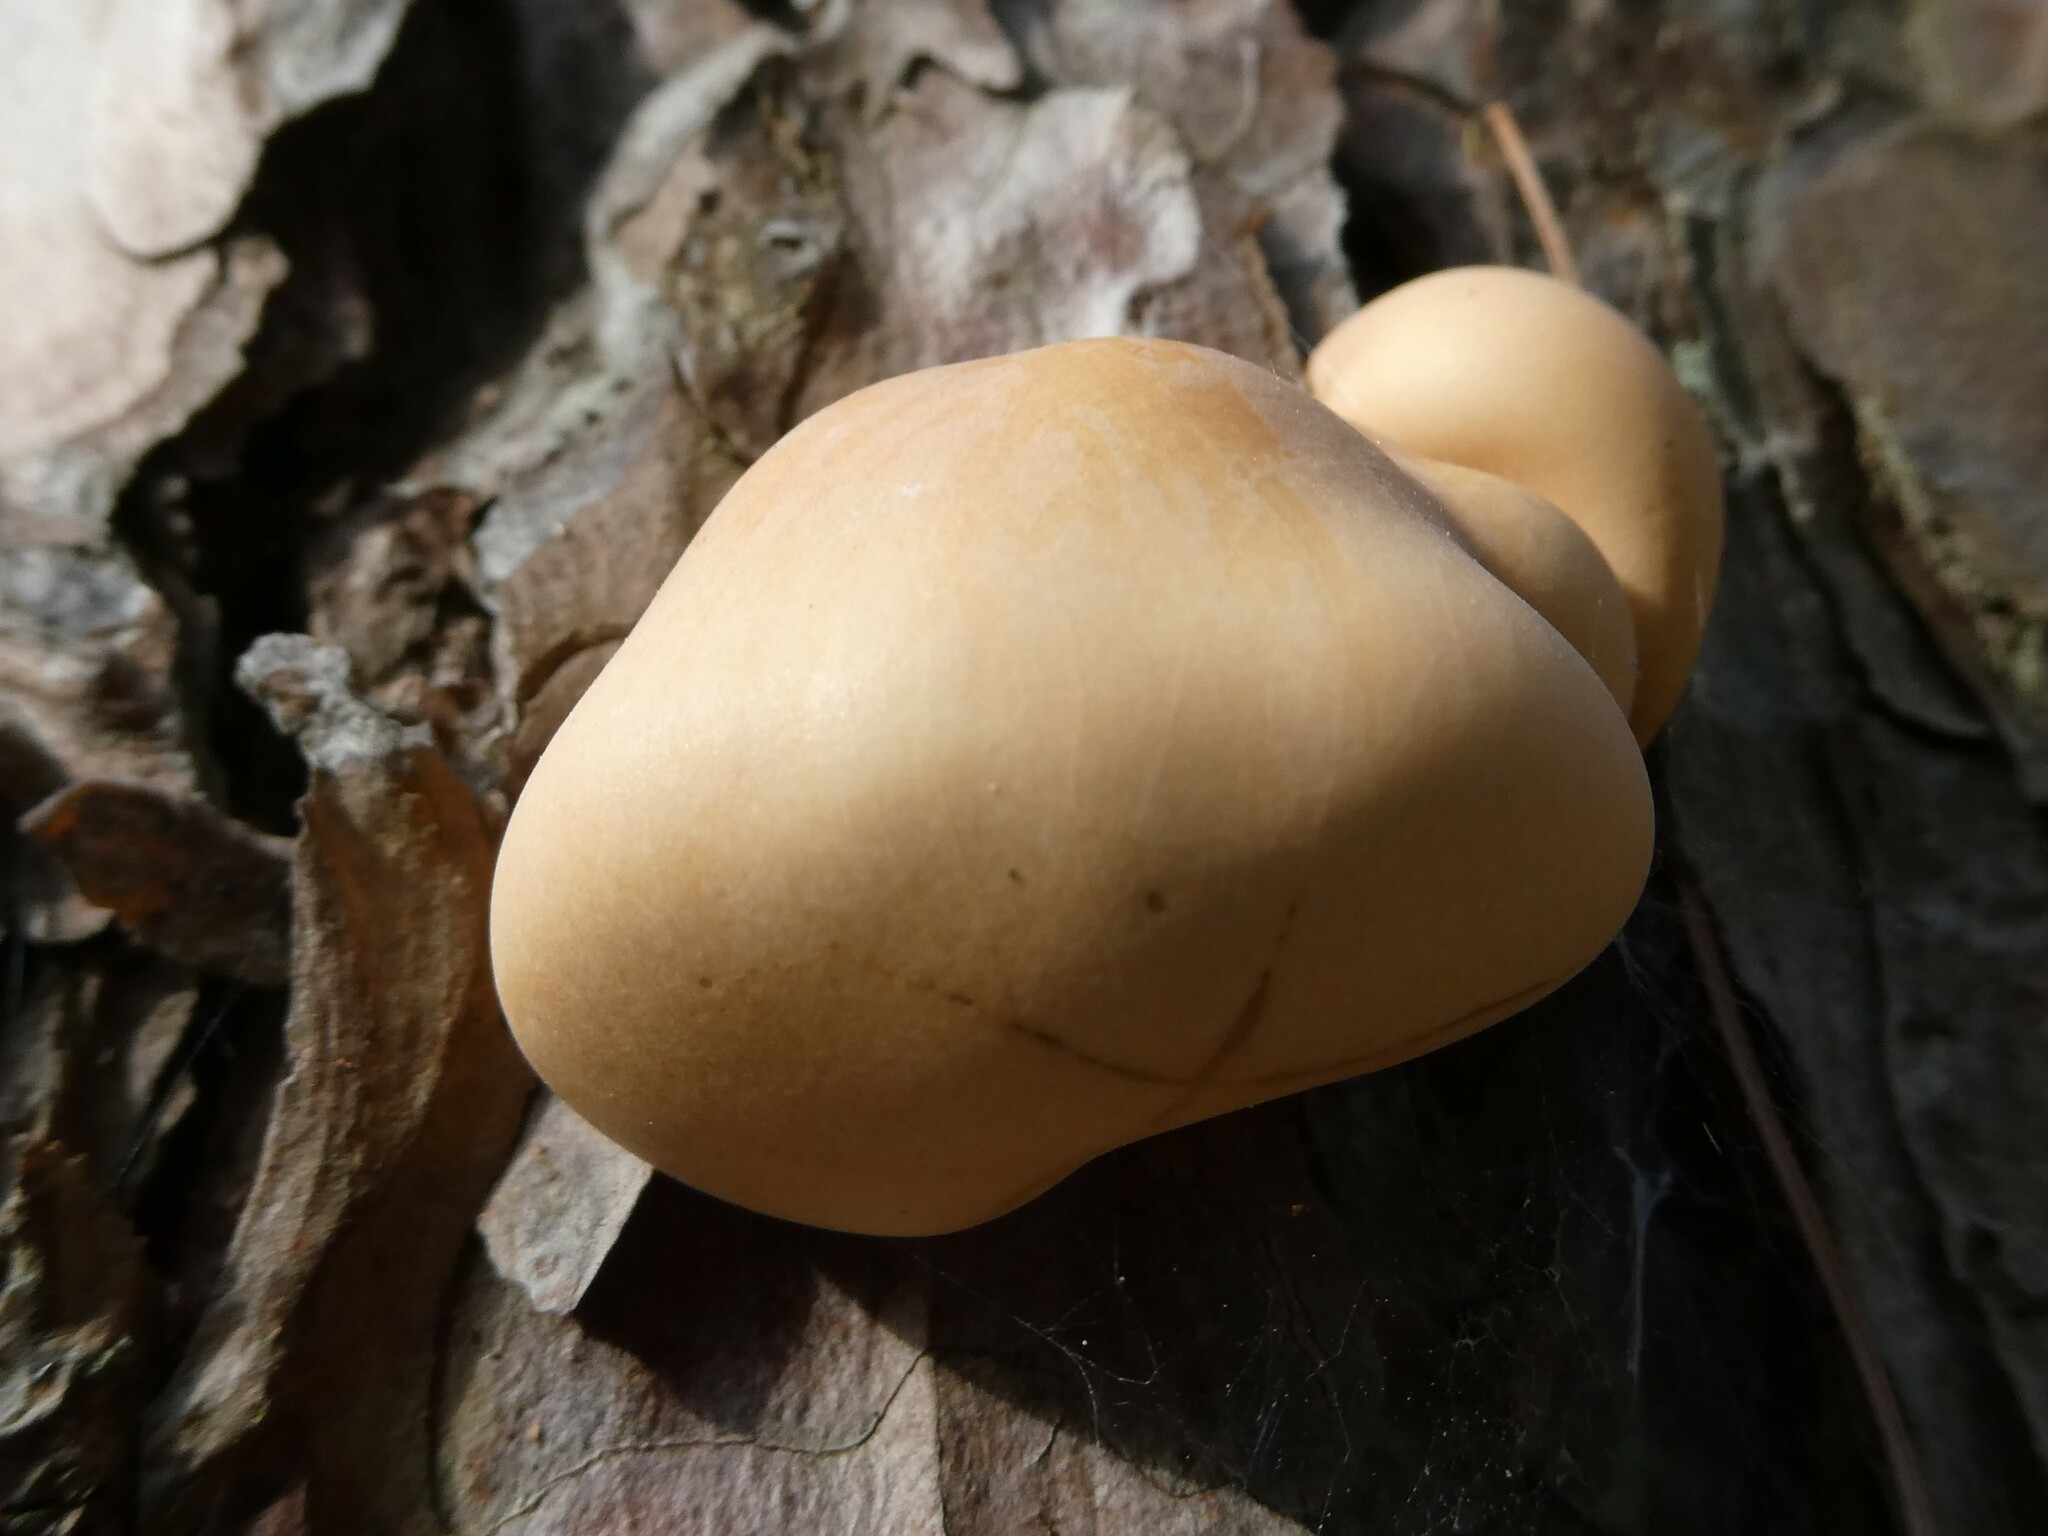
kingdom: Fungi
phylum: Basidiomycota
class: Agaricomycetes
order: Polyporales
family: Polyporaceae
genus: Cryptoporus
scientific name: Cryptoporus volvatus
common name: Veiled polypore
